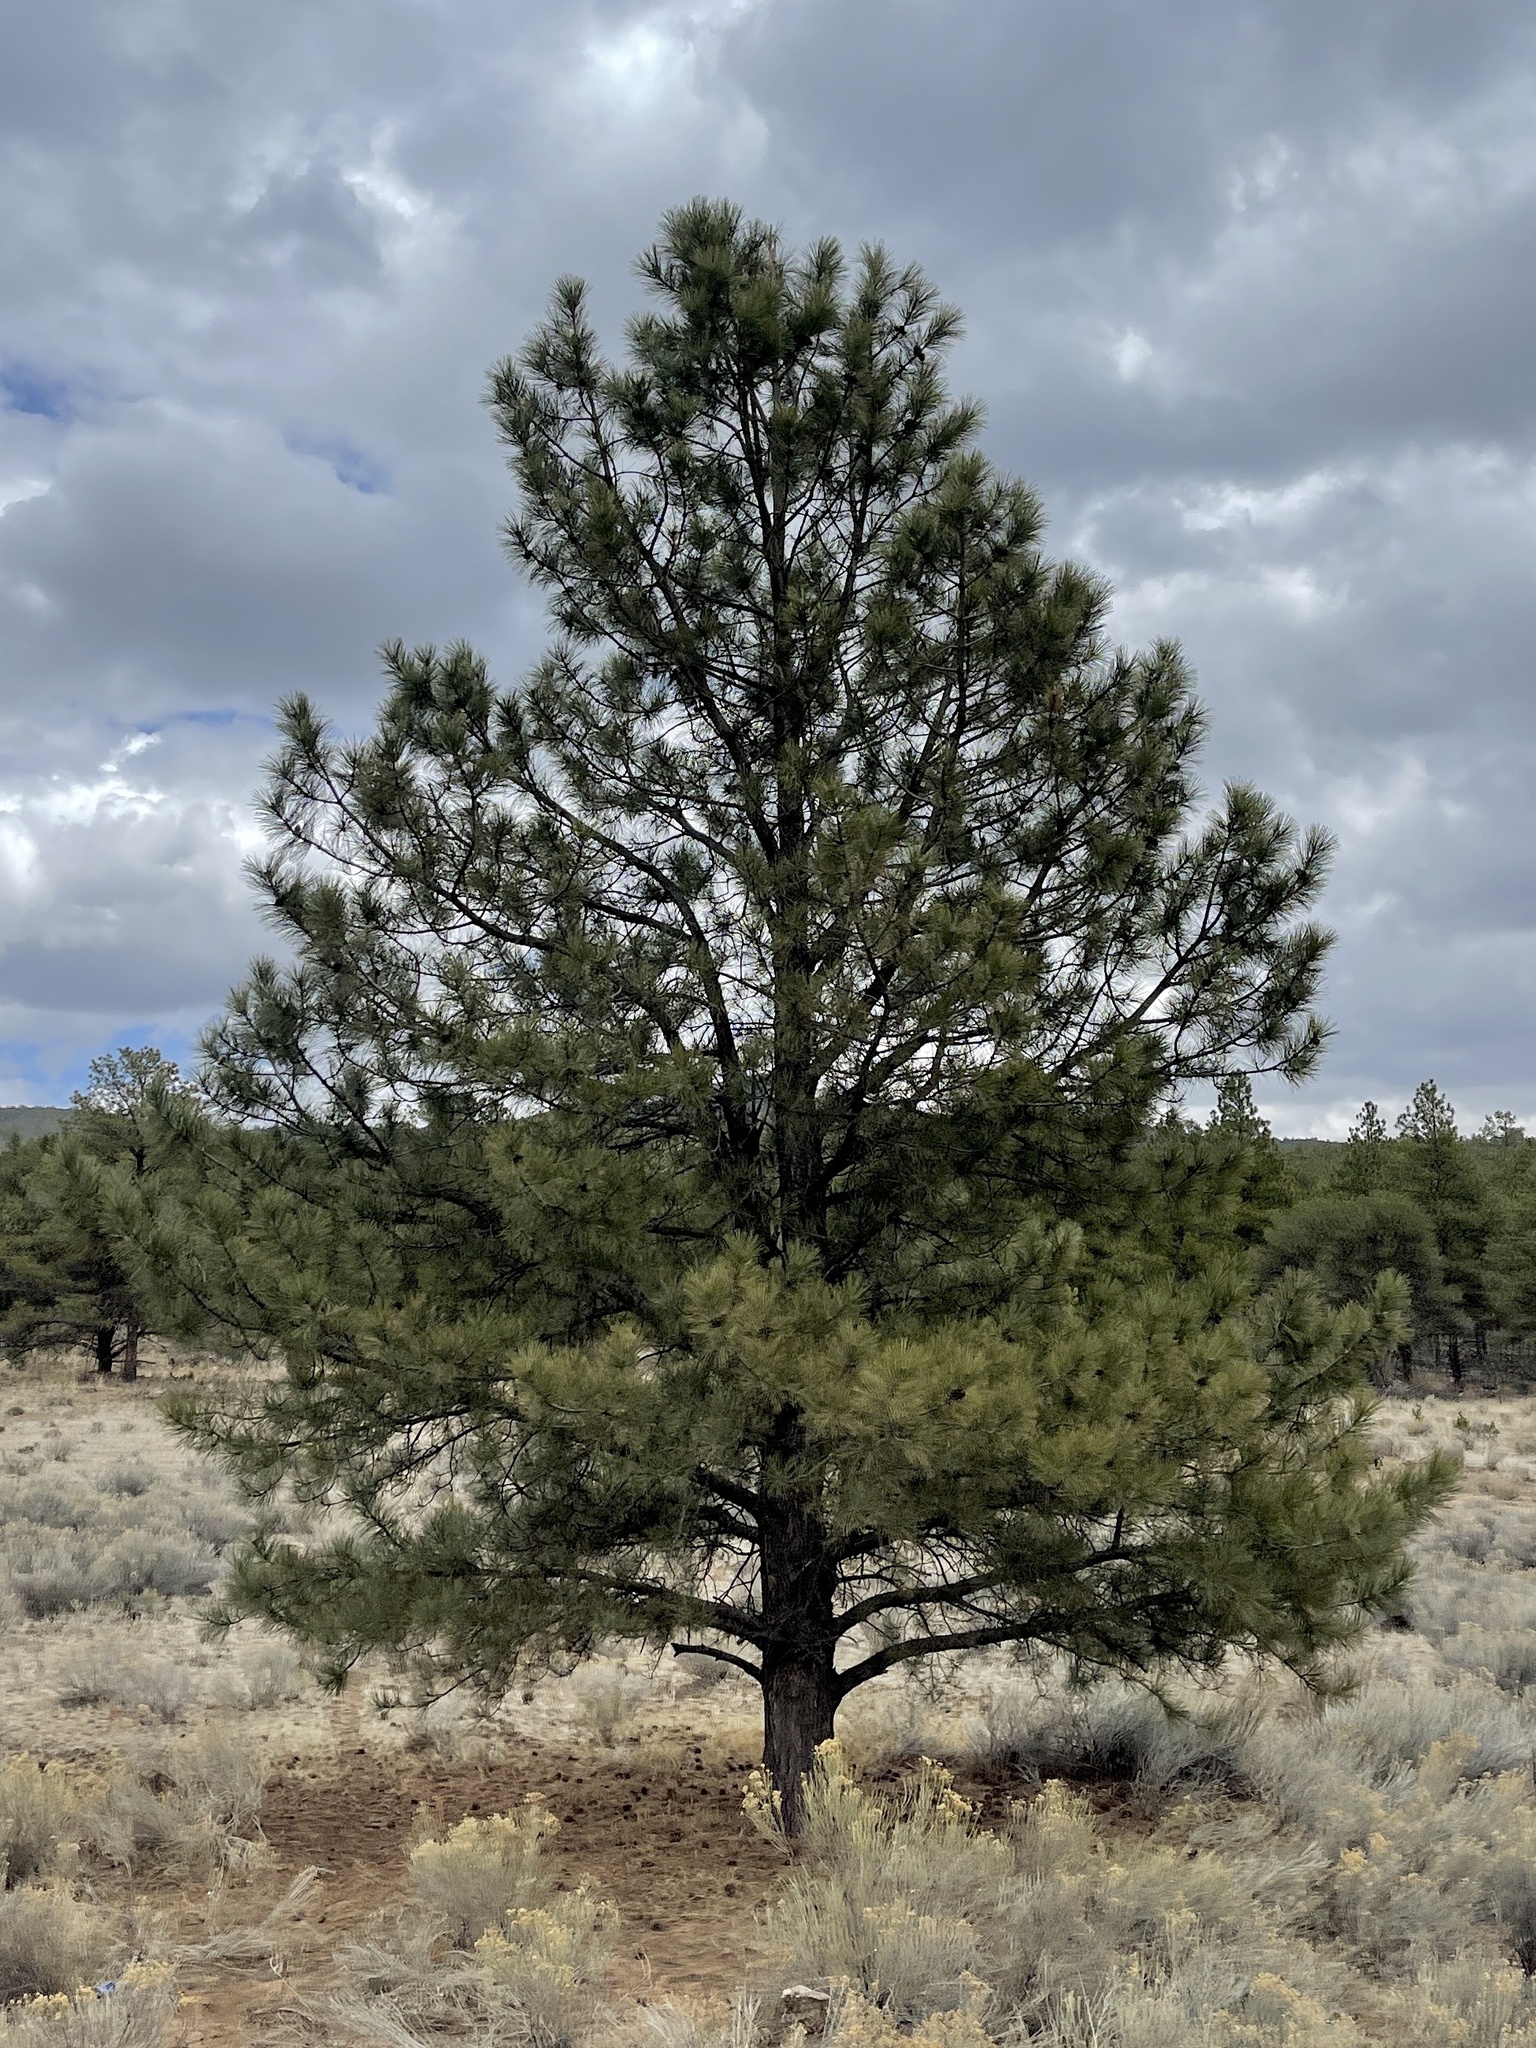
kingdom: Plantae
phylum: Tracheophyta
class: Pinopsida
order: Pinales
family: Pinaceae
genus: Pinus
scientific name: Pinus ponderosa
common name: Western yellow-pine
